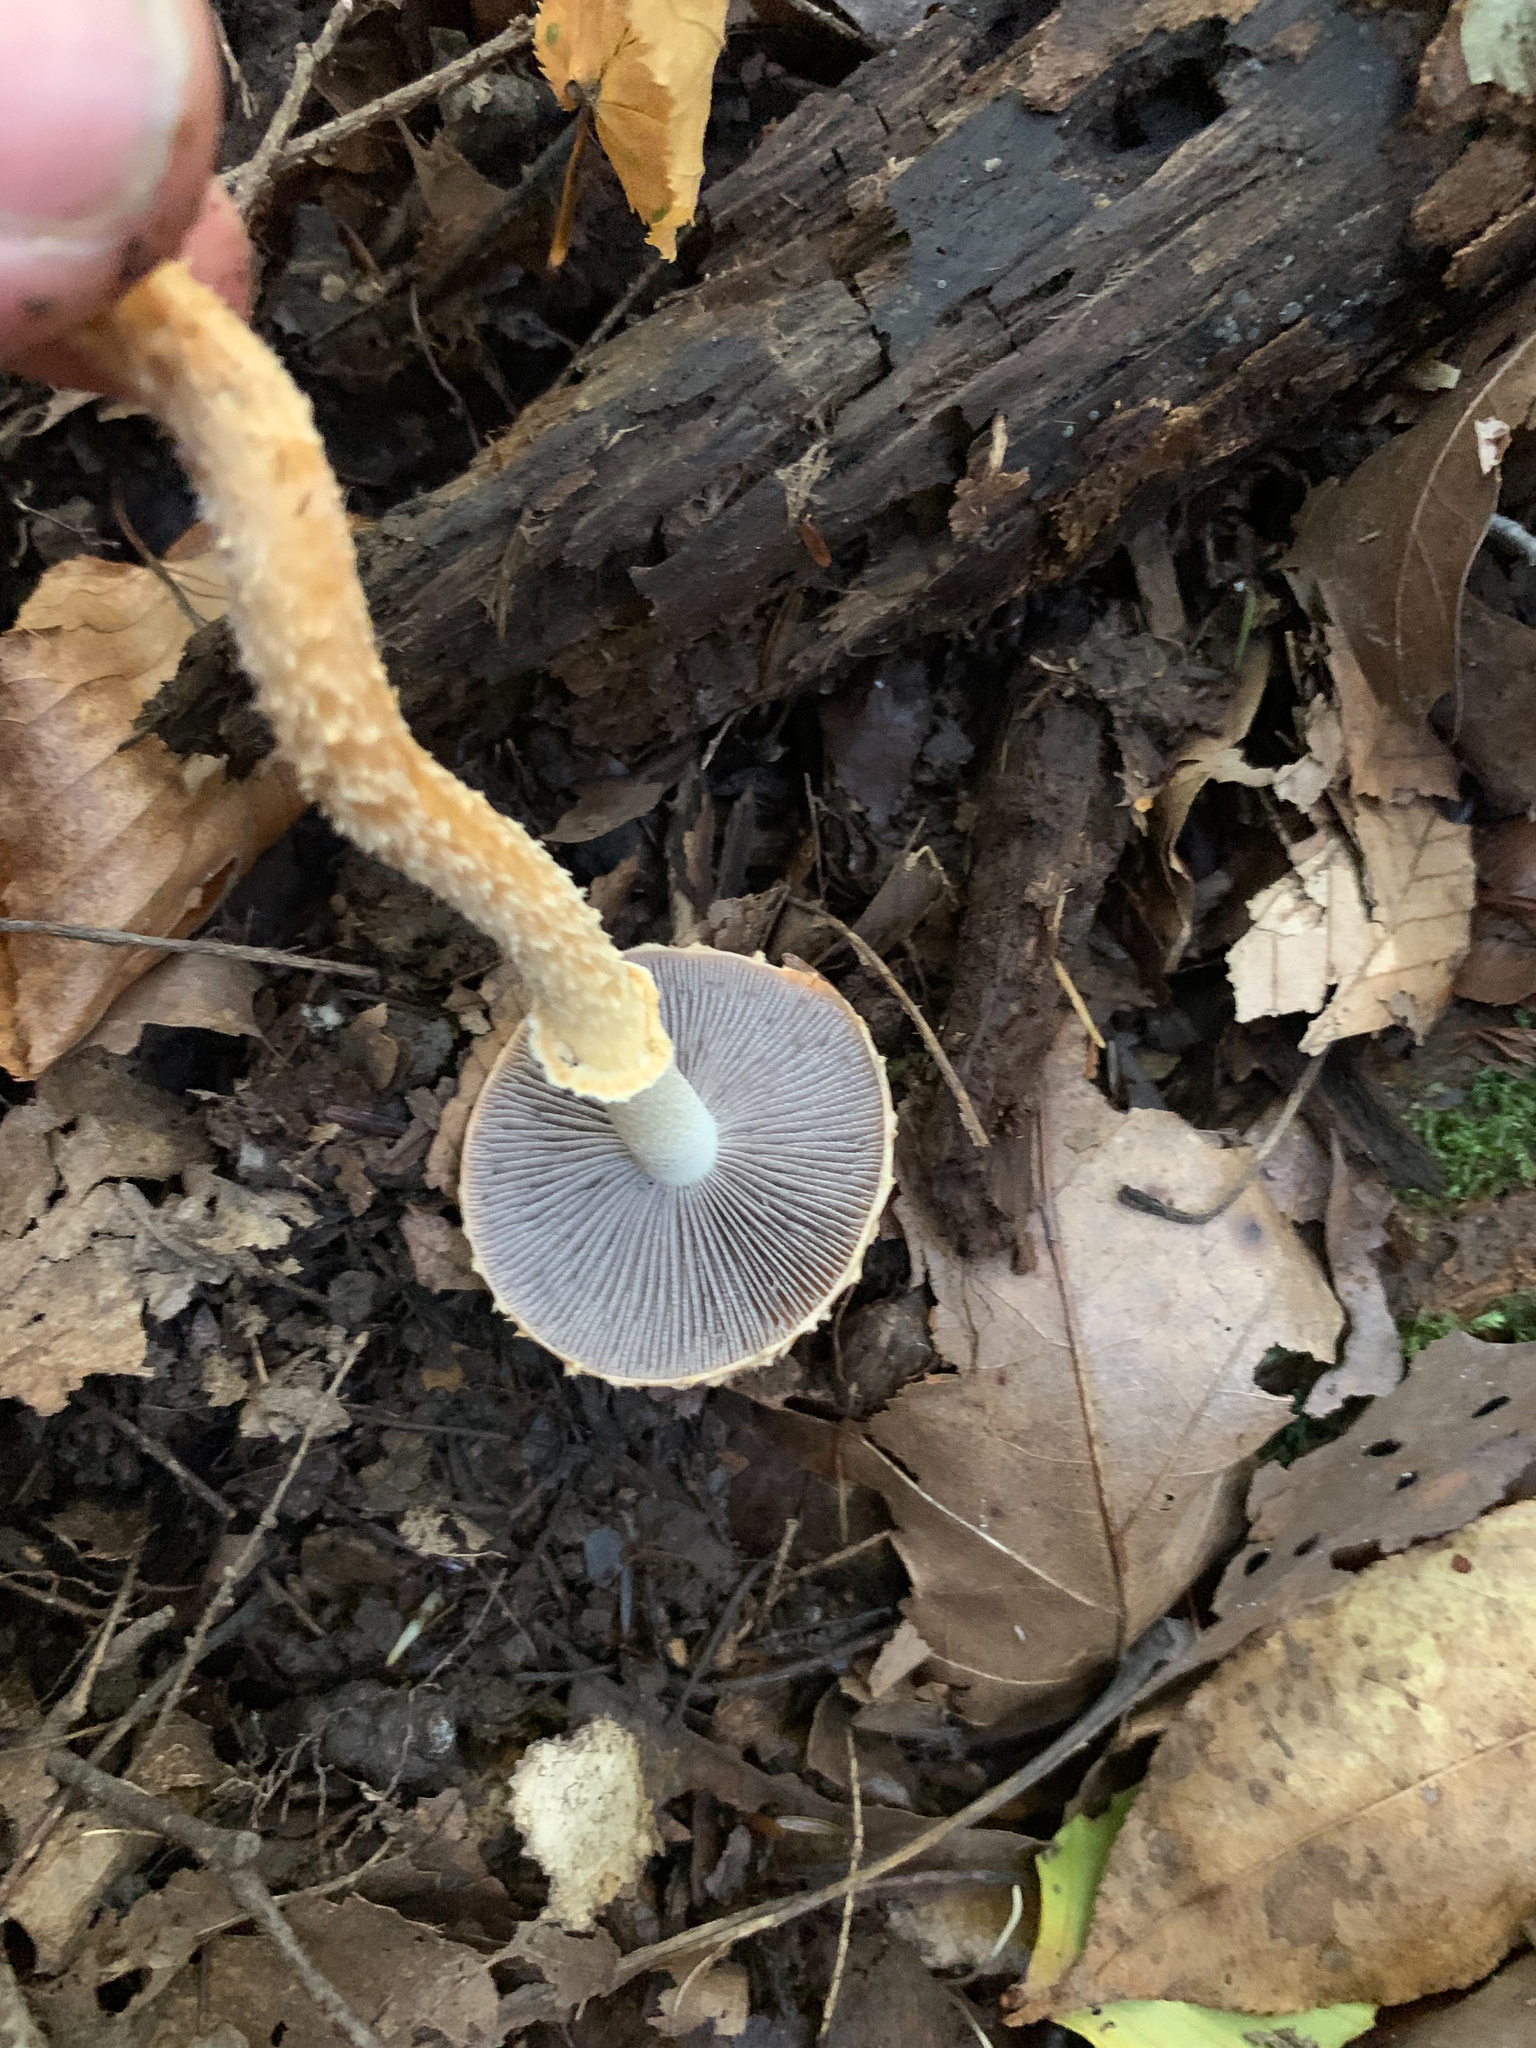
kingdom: Fungi
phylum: Basidiomycota
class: Agaricomycetes
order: Agaricales
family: Strophariaceae
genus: Leratiomyces
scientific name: Leratiomyces squamosus
